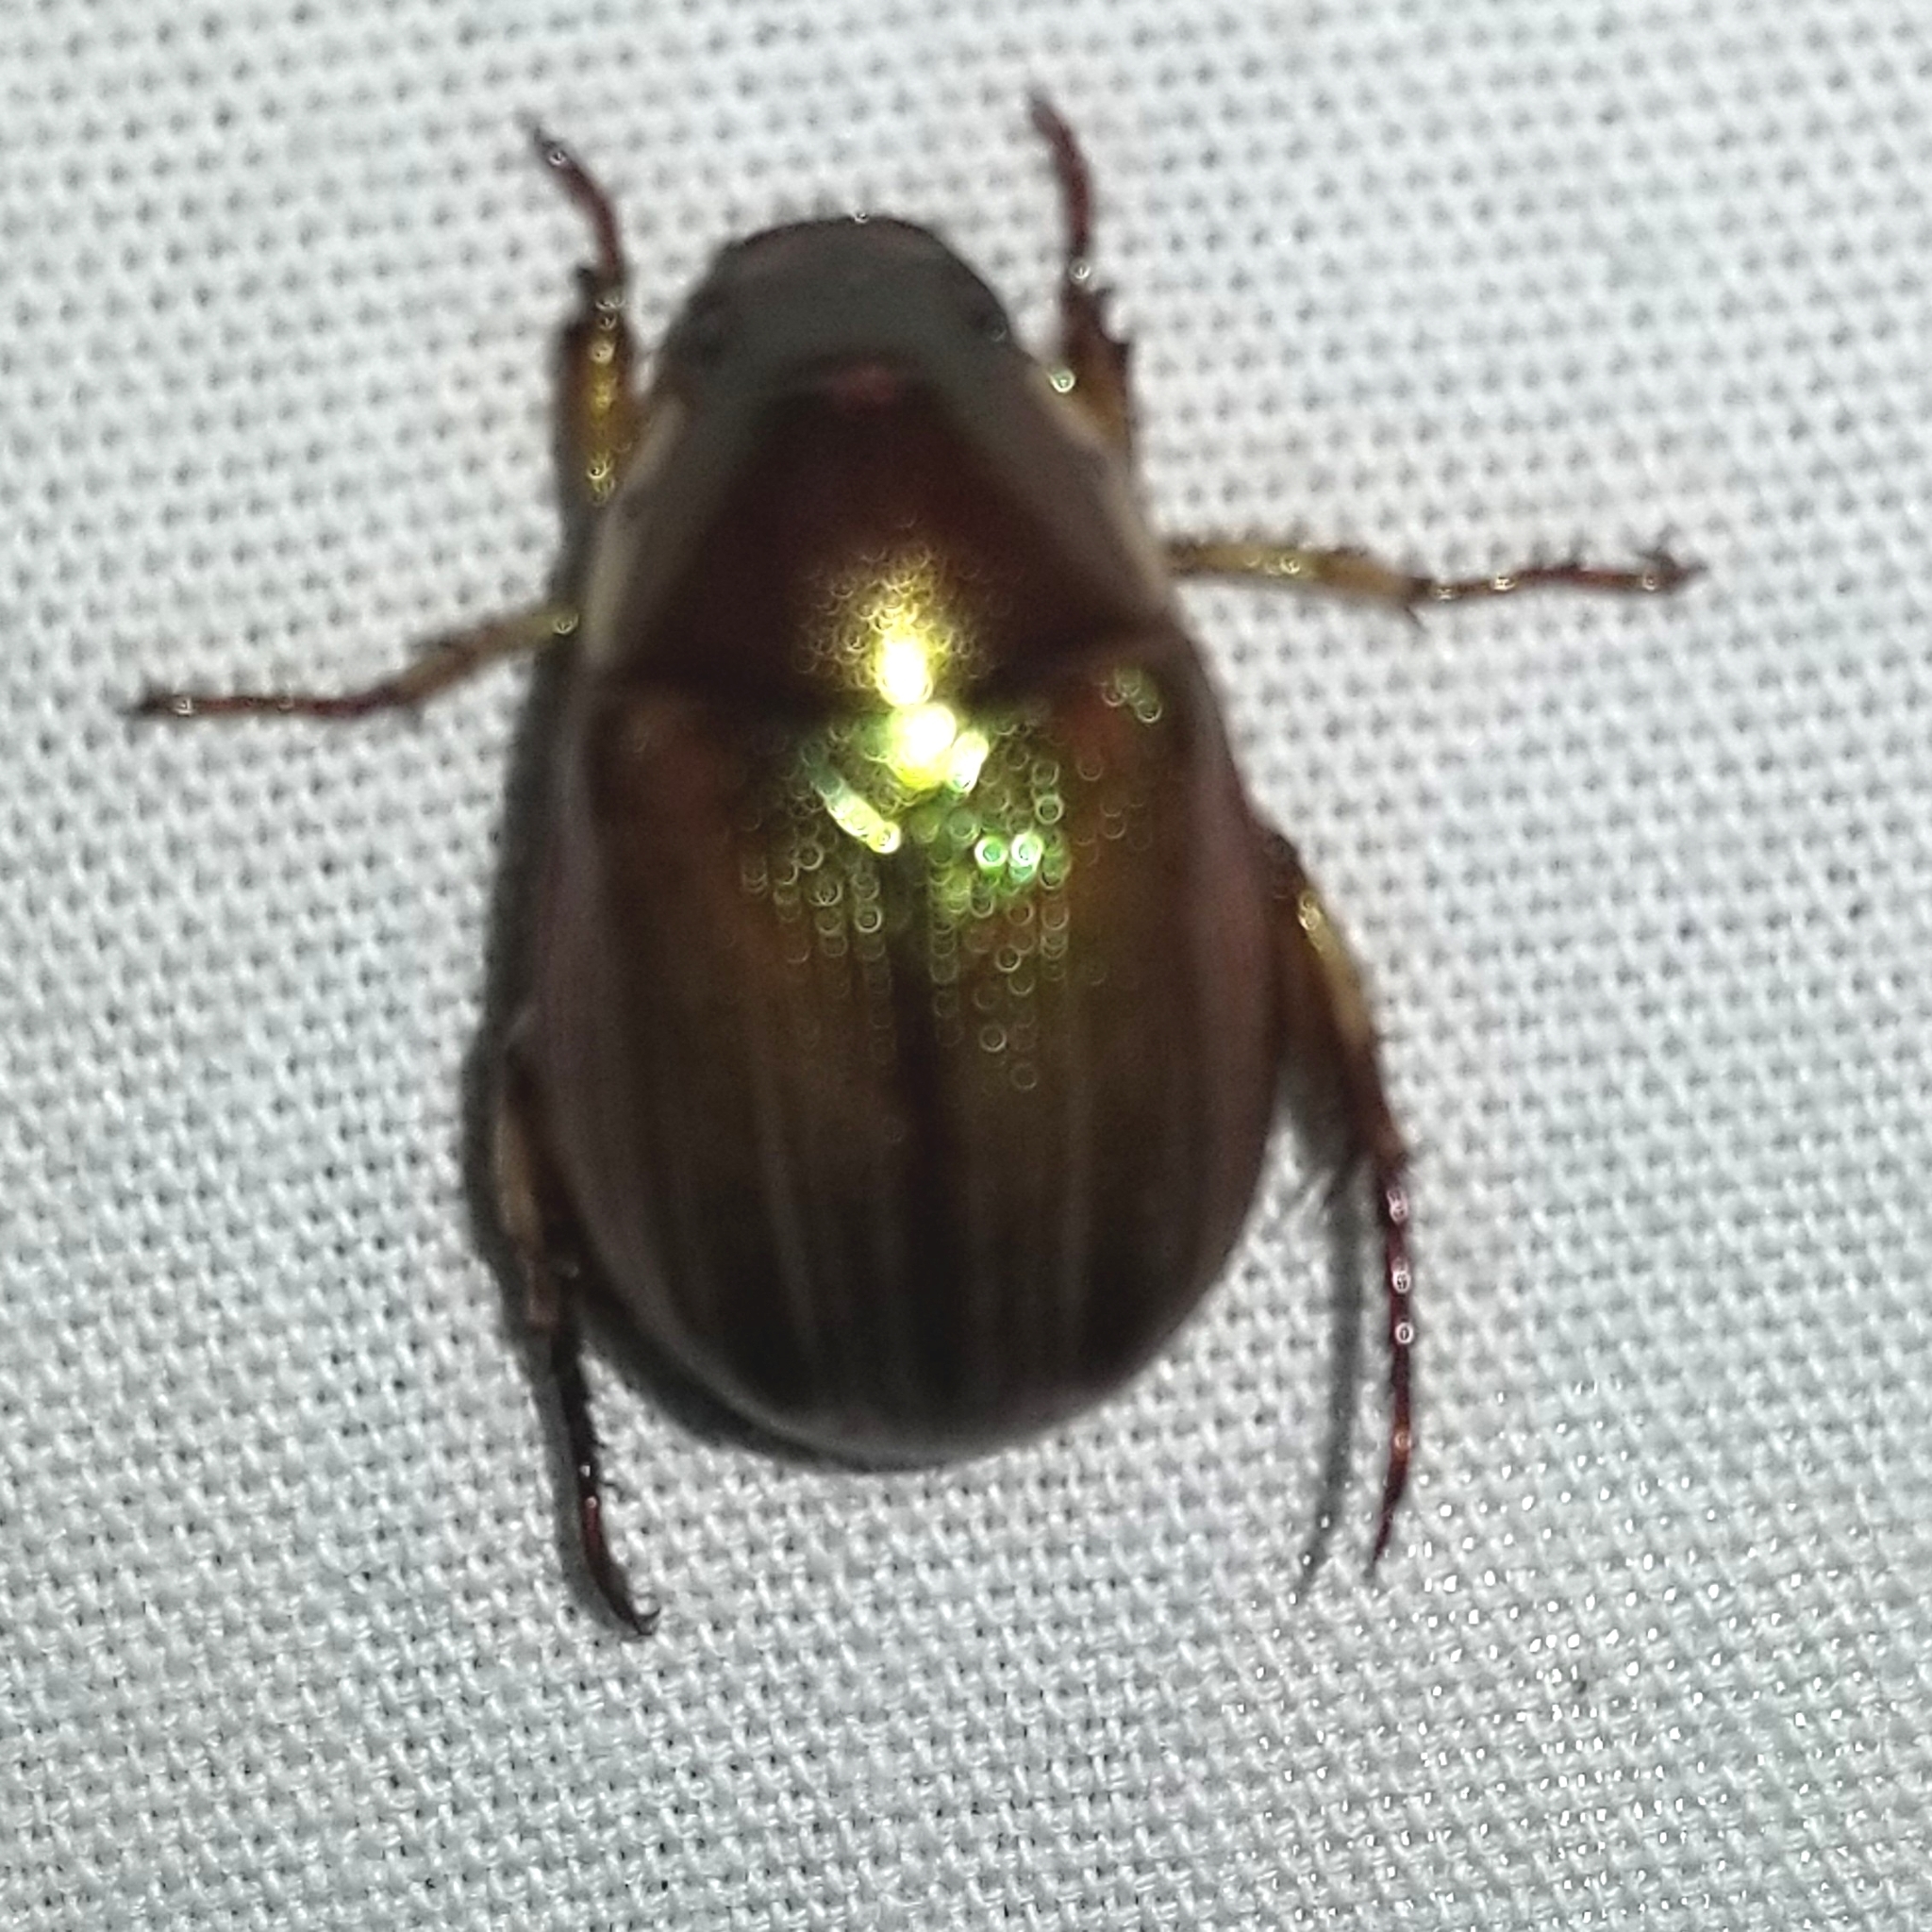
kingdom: Animalia
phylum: Arthropoda
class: Insecta
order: Coleoptera
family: Scarabaeidae
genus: Callistethus
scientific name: Callistethus marginatus
